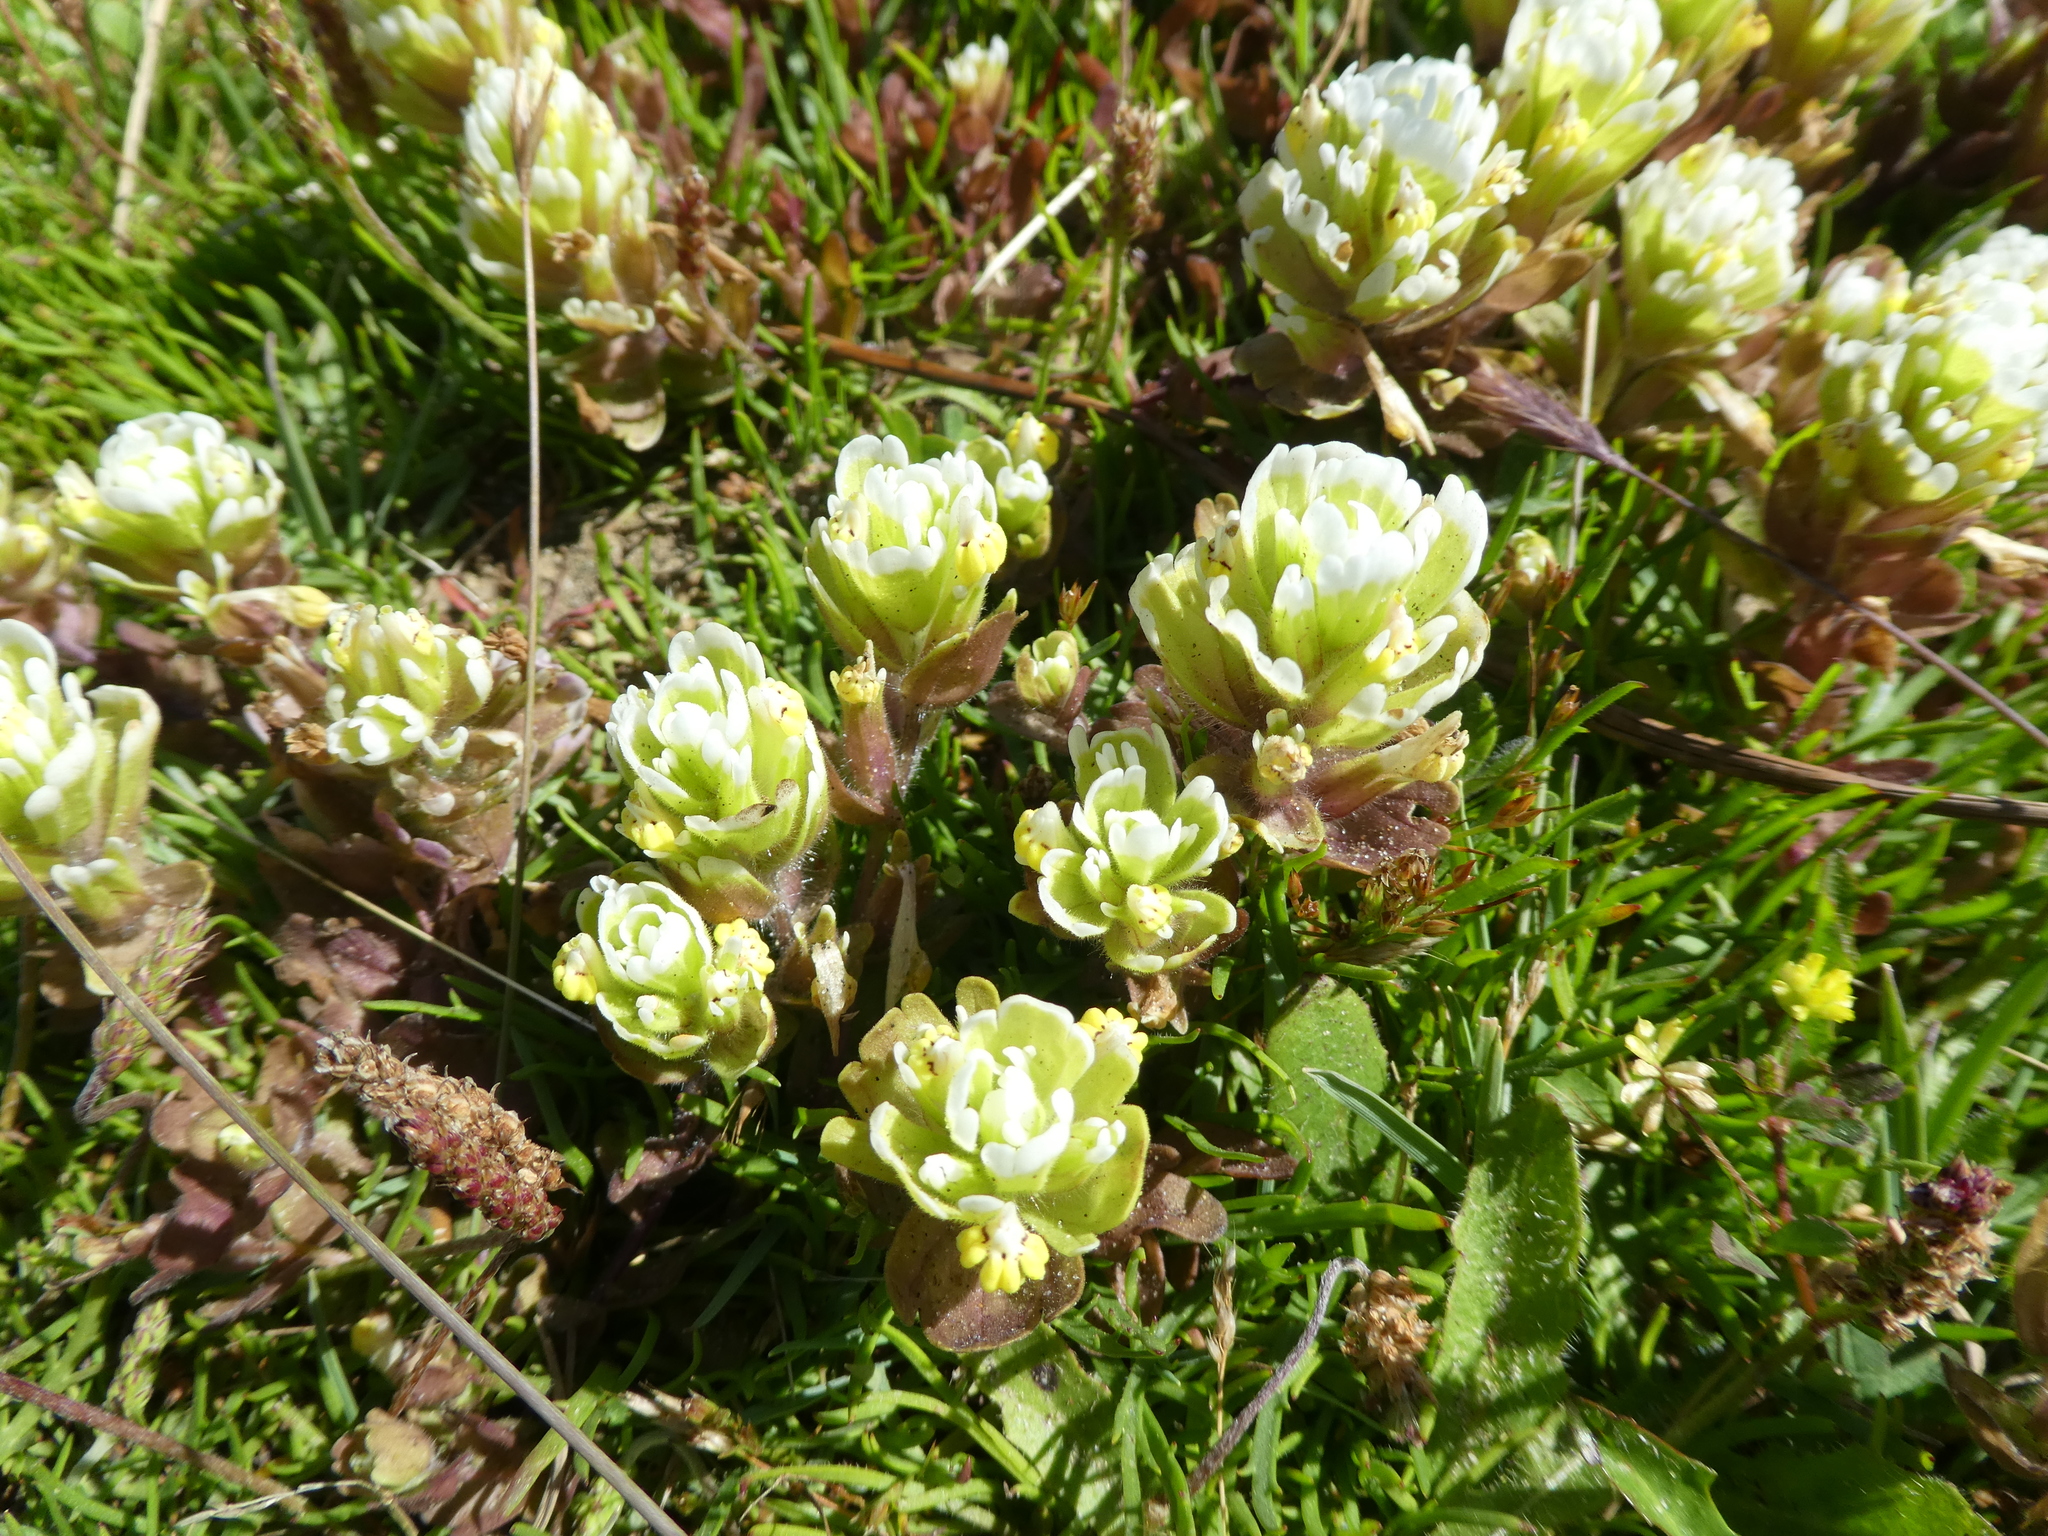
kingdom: Plantae
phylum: Tracheophyta
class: Magnoliopsida
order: Lamiales
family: Orobanchaceae
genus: Castilleja
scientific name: Castilleja ambigua
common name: Johnny-nip
